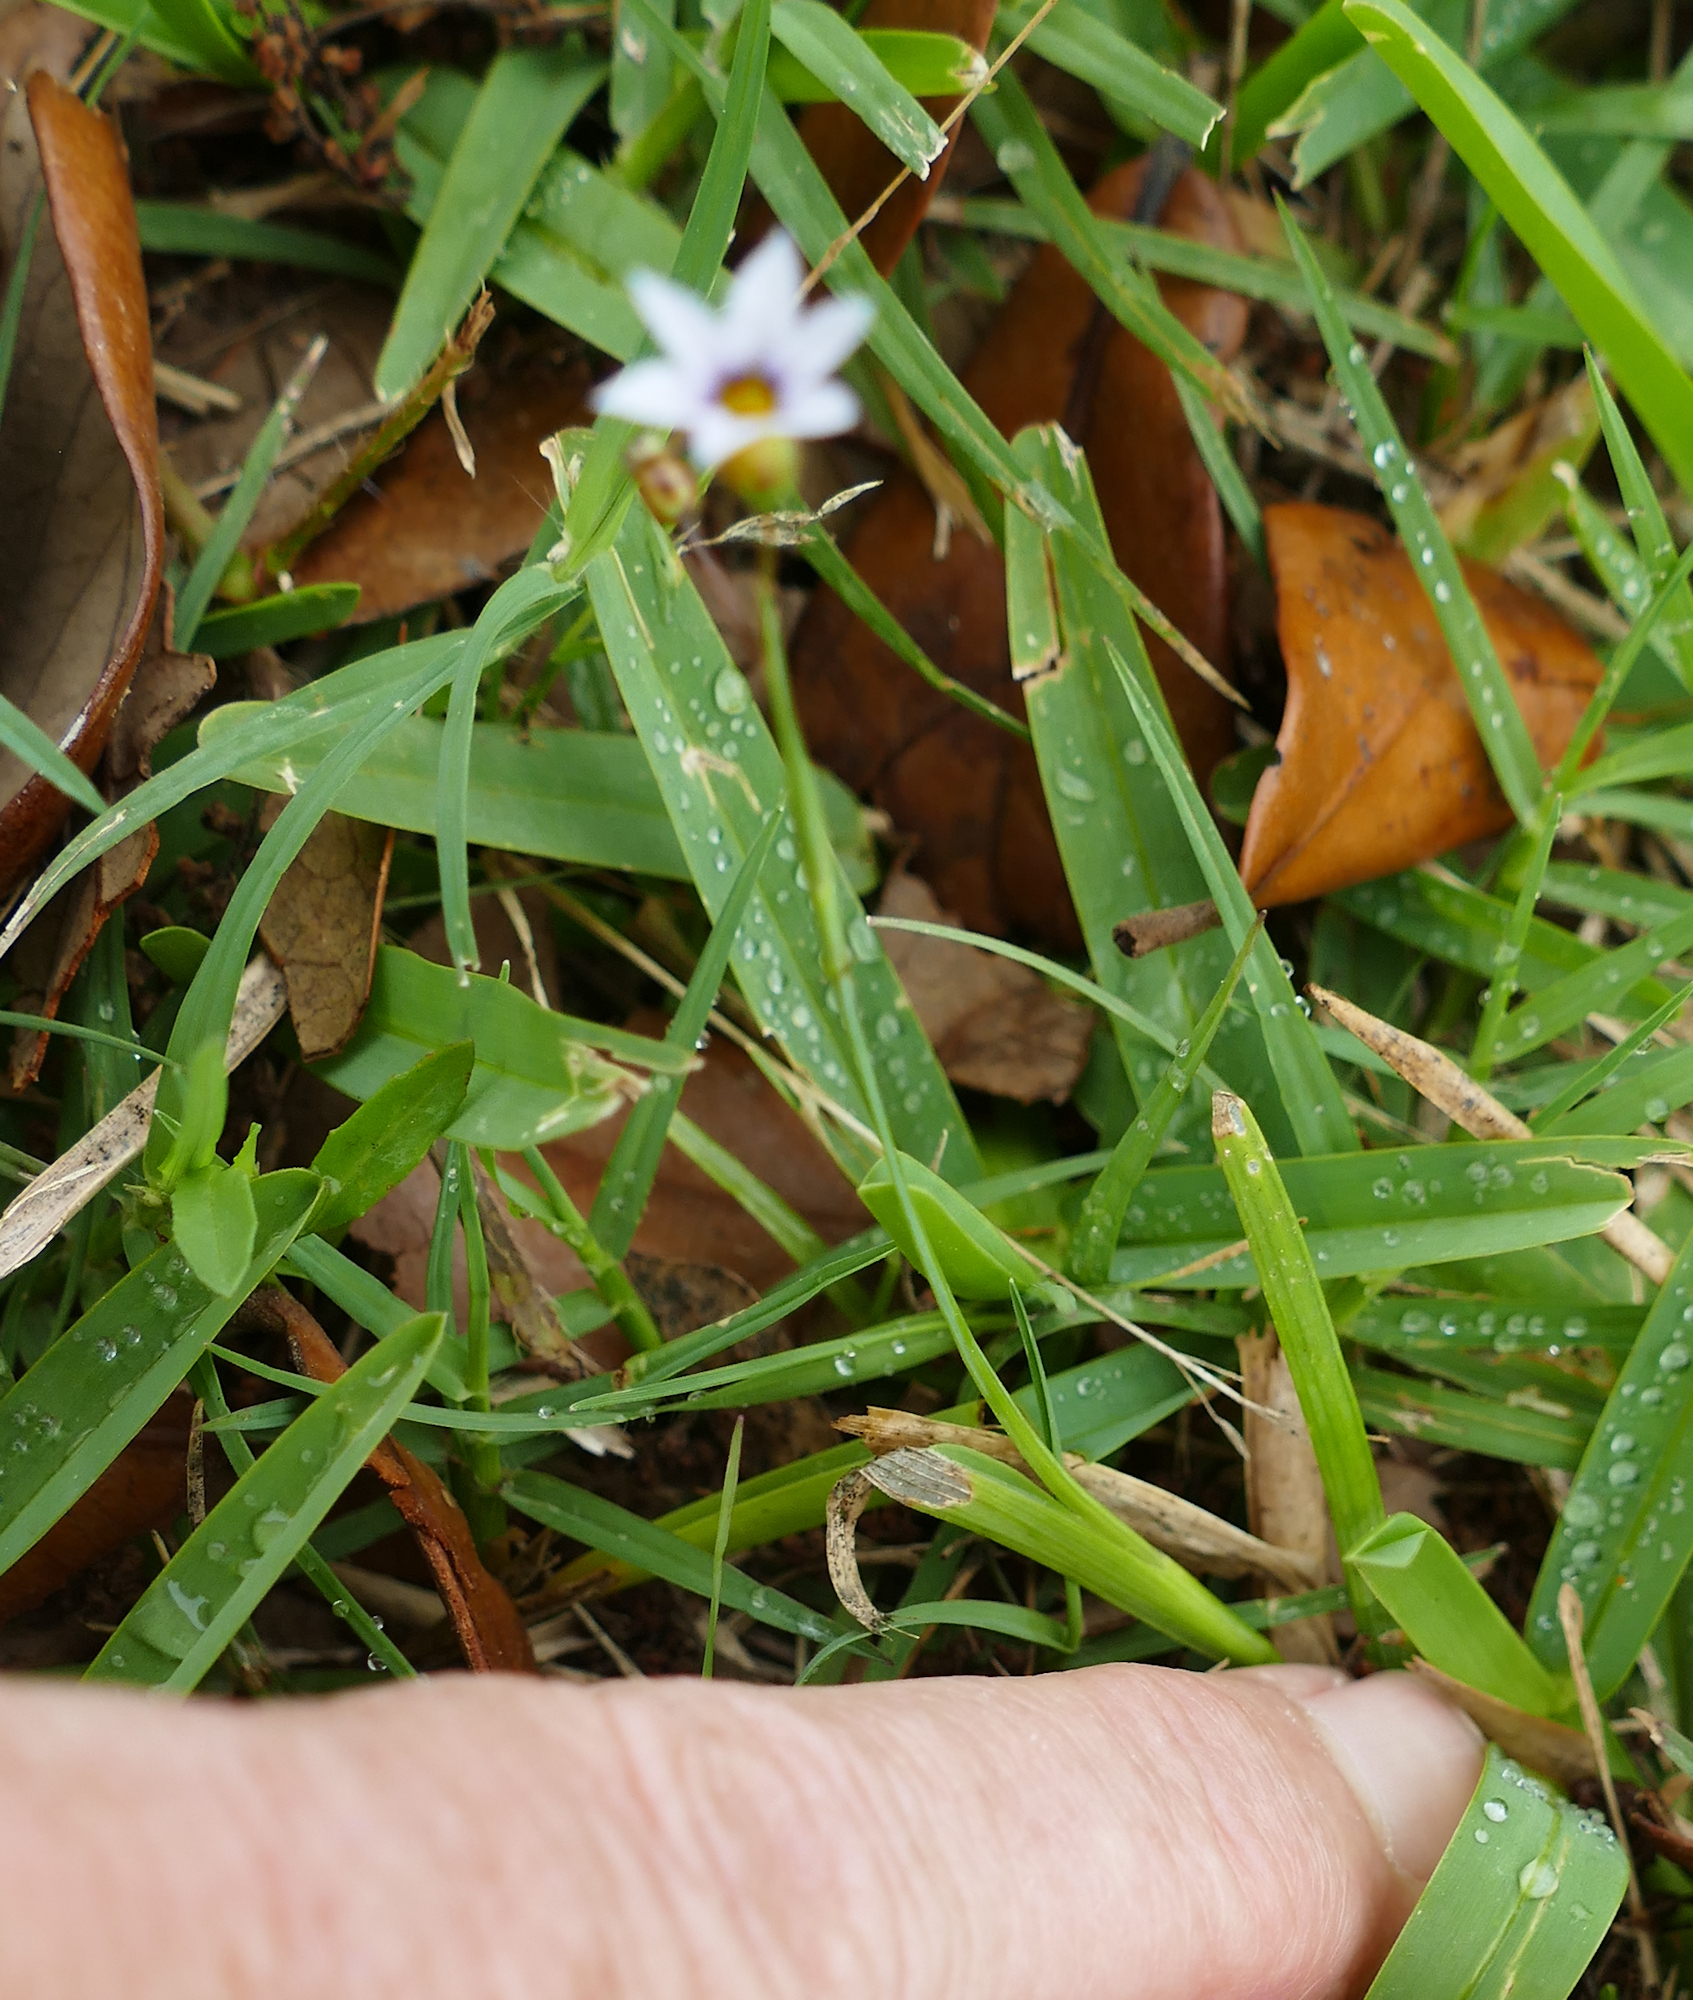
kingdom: Plantae
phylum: Tracheophyta
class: Liliopsida
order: Asparagales
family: Iridaceae
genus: Sisyrinchium
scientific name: Sisyrinchium micranthum
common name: Bermuda pigroot
